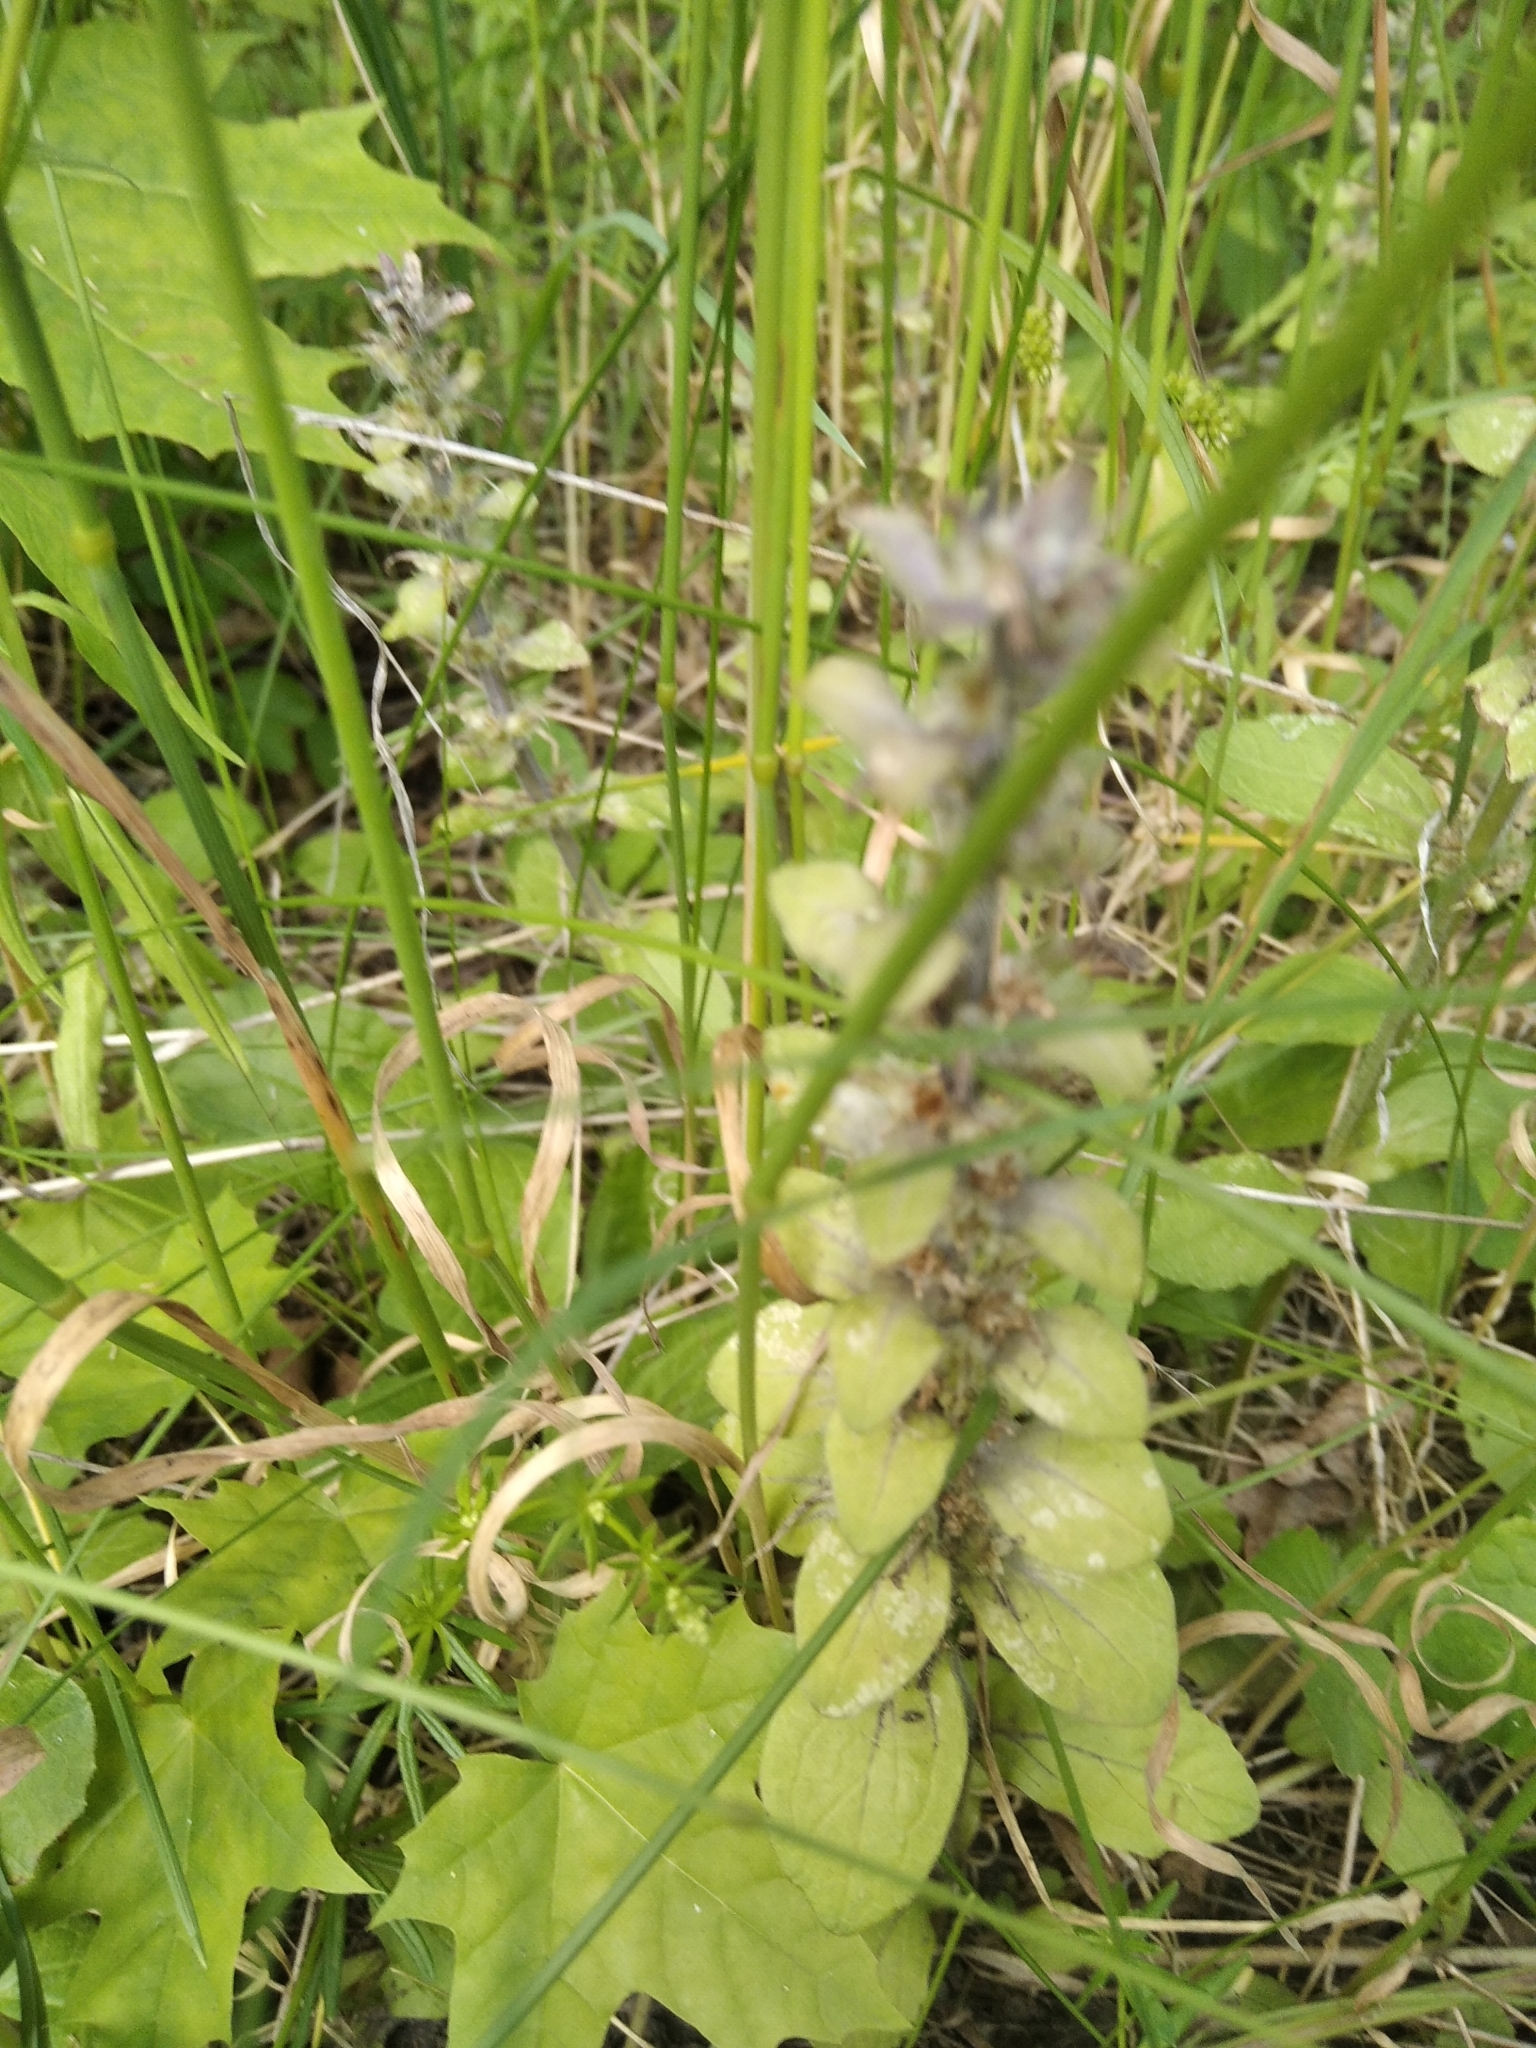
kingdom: Plantae
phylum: Tracheophyta
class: Magnoliopsida
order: Lamiales
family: Lamiaceae
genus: Ajuga
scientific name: Ajuga reptans
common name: Bugle
